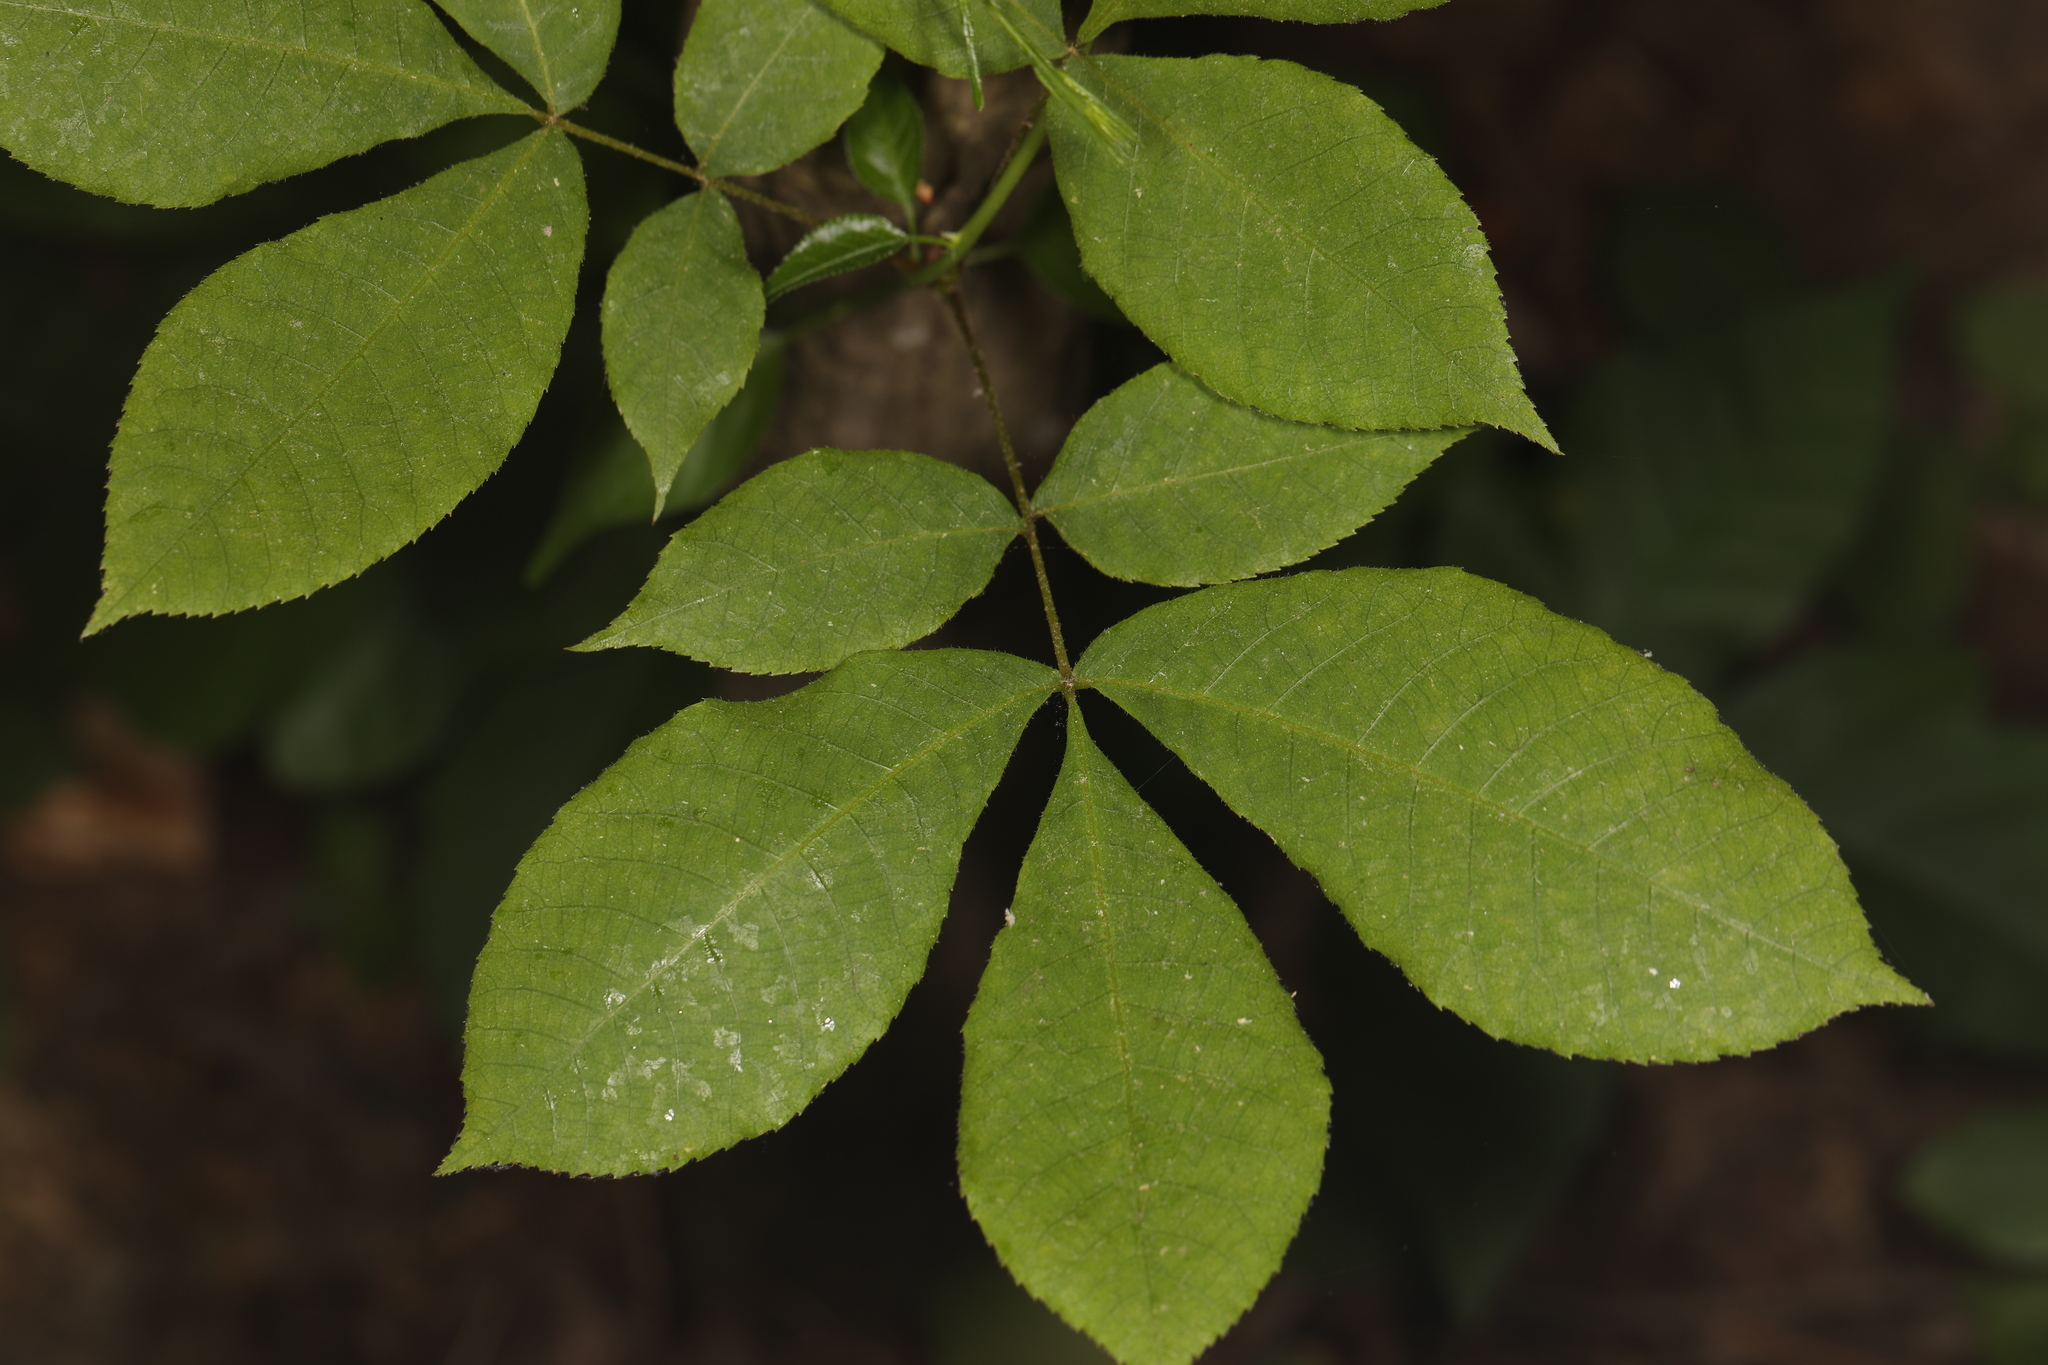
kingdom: Plantae
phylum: Tracheophyta
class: Magnoliopsida
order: Fagales
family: Juglandaceae
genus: Carya
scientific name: Carya glabra
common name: Pignut hickory
